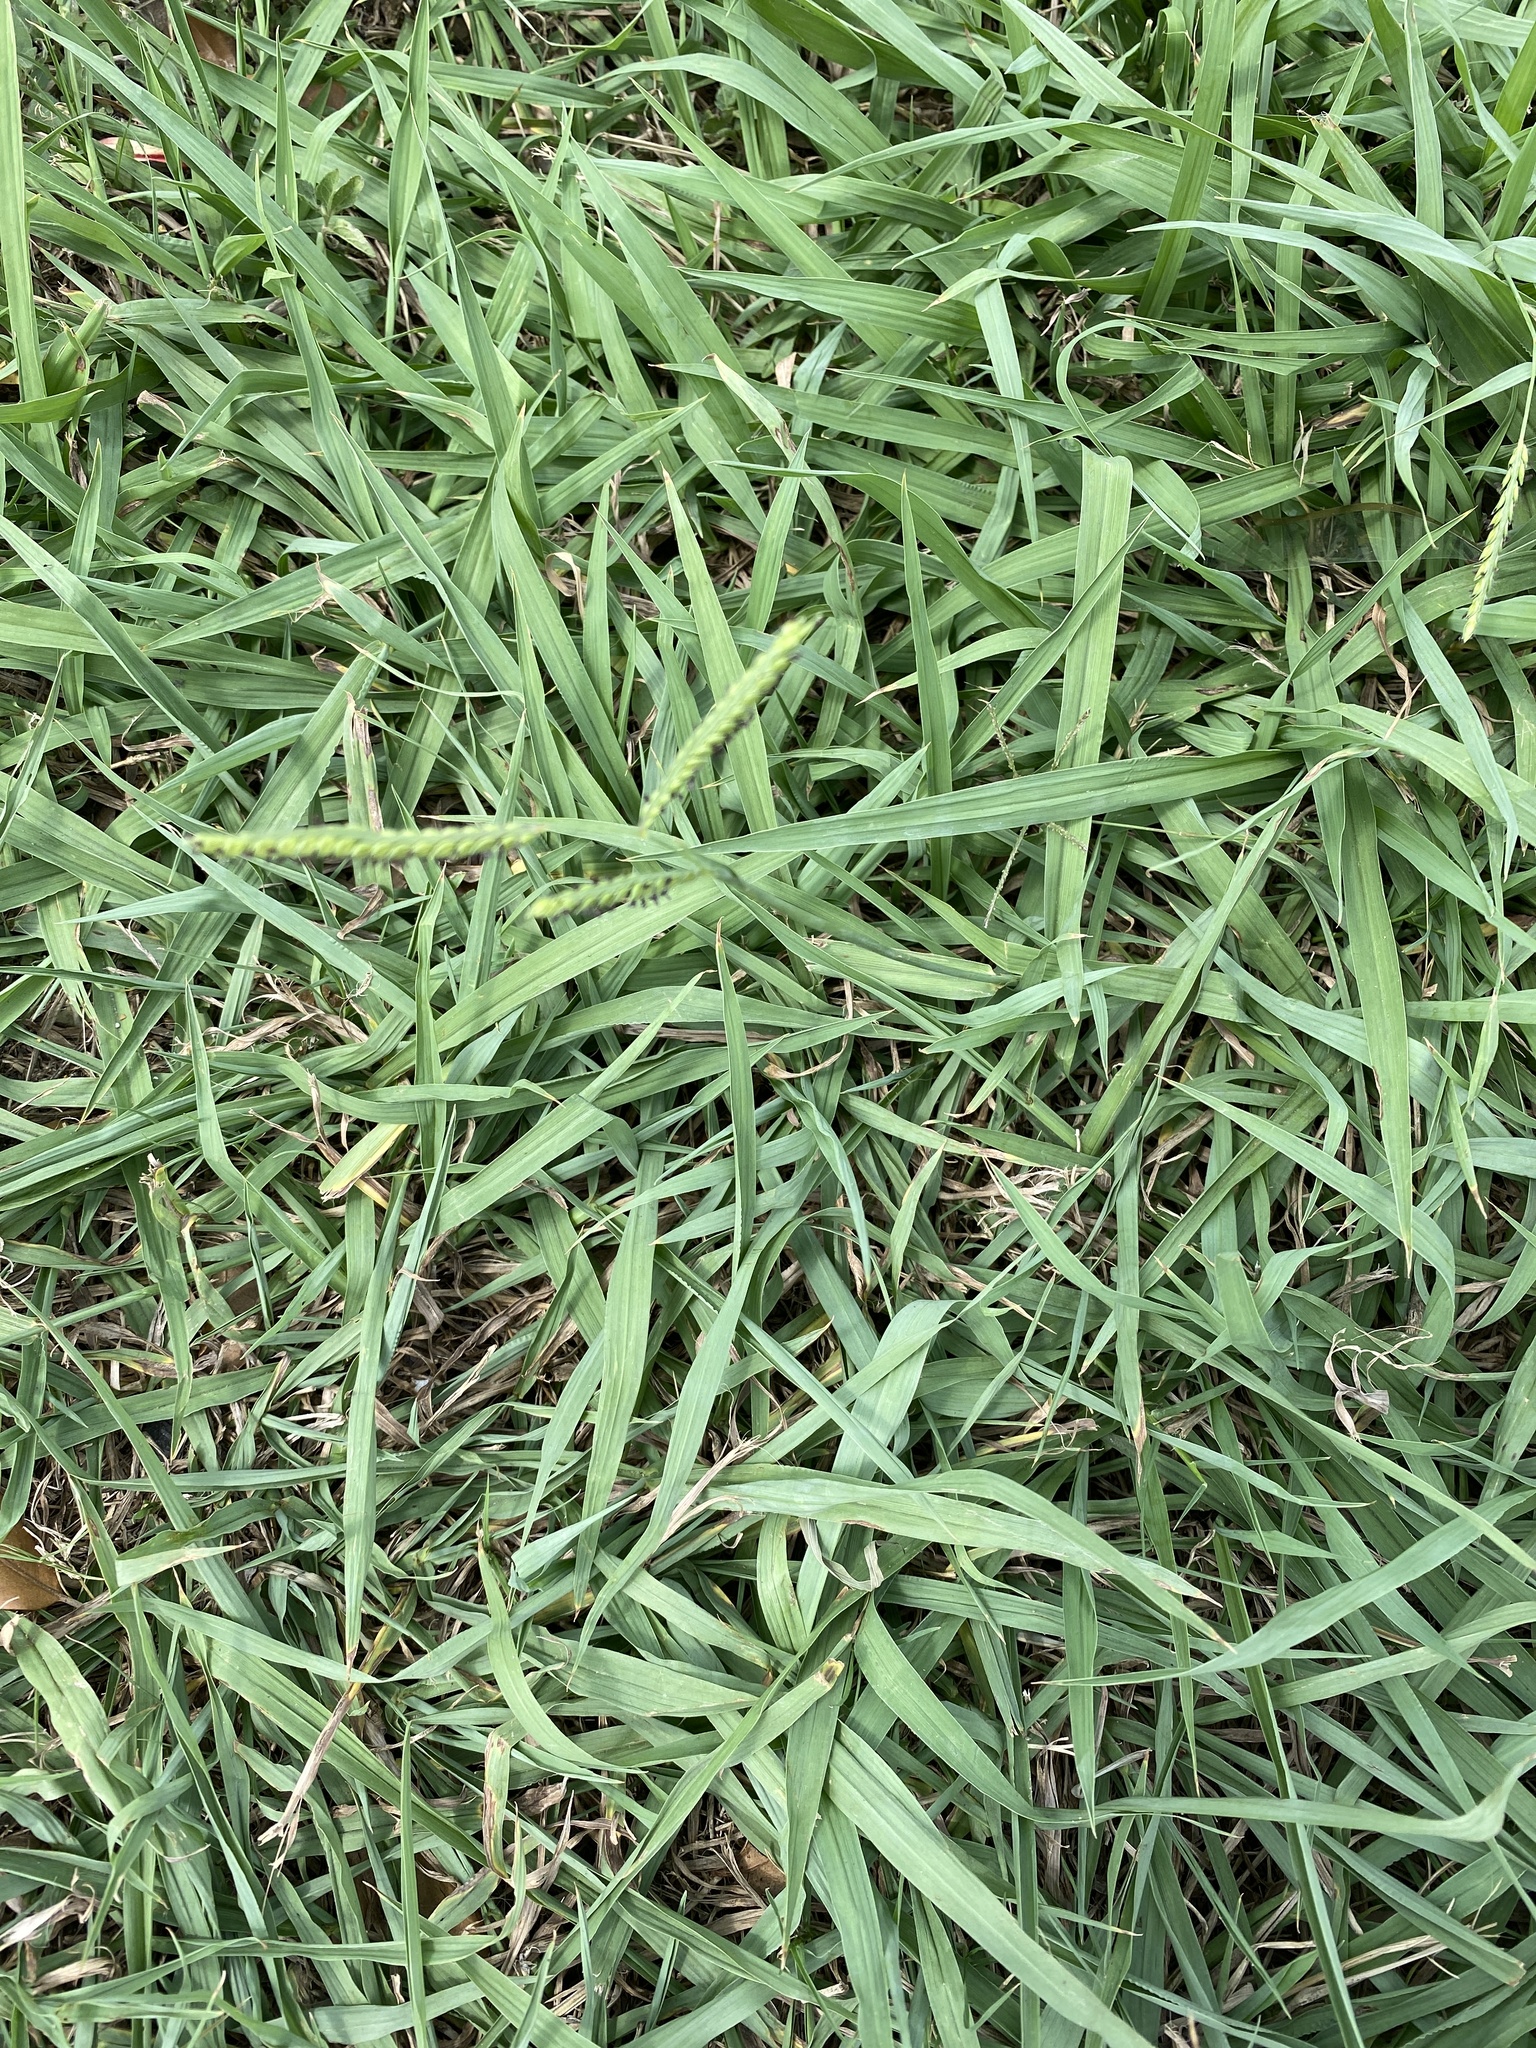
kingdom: Plantae
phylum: Tracheophyta
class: Liliopsida
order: Poales
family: Poaceae
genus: Paspalum
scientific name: Paspalum dilatatum
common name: Dallisgrass
